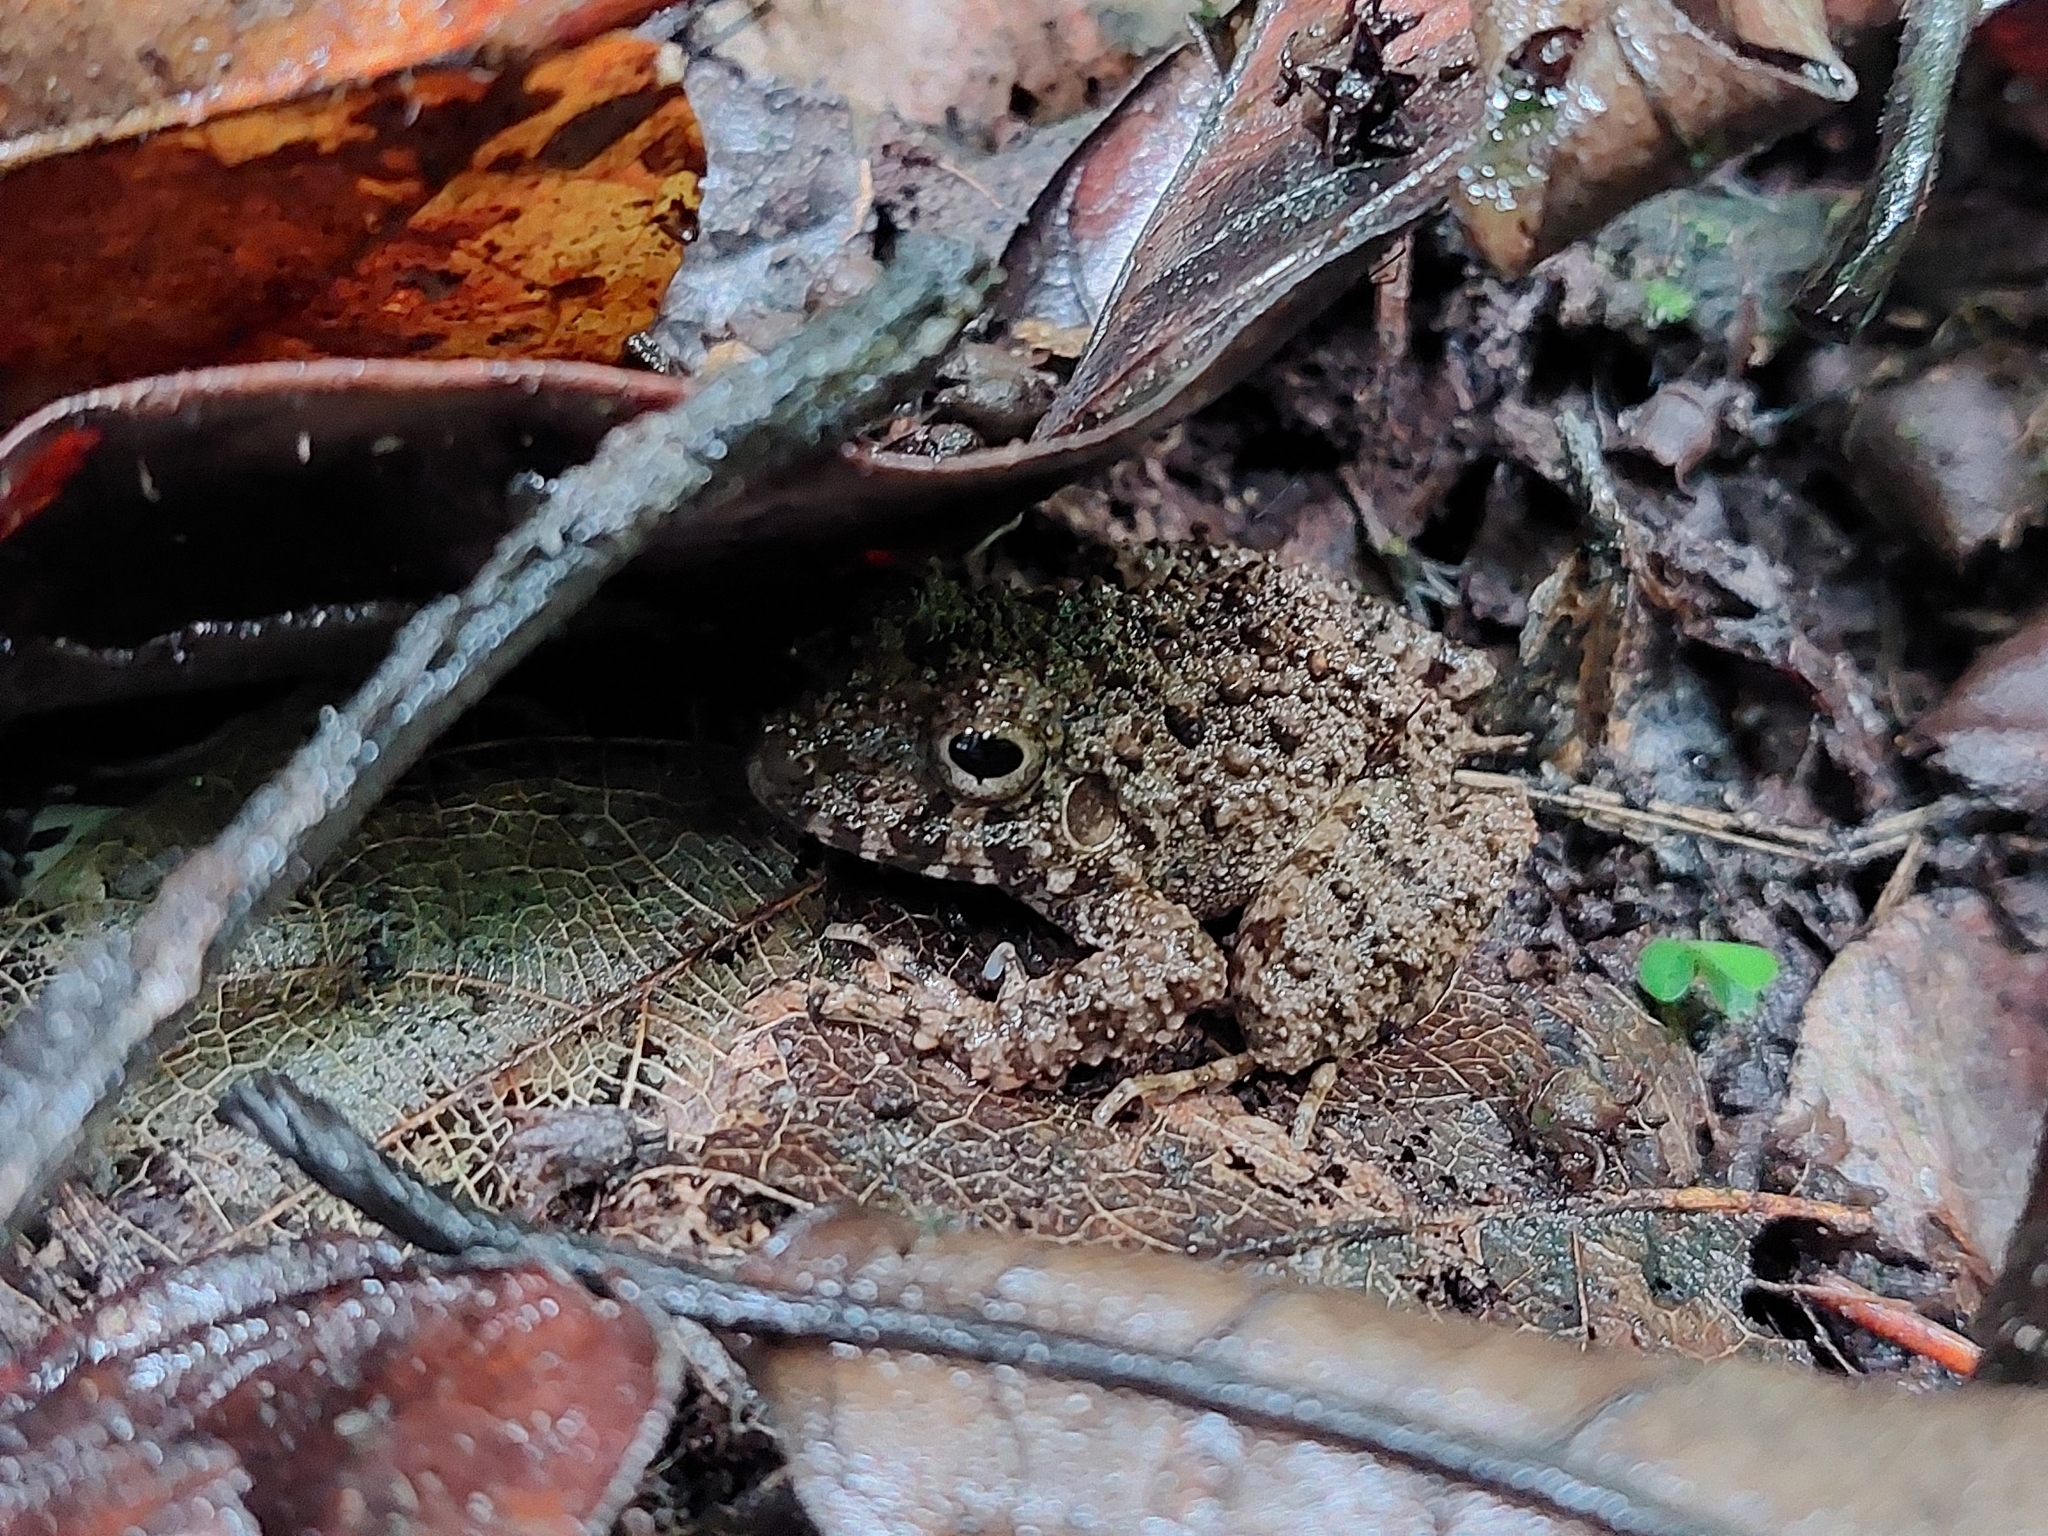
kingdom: Animalia
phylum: Chordata
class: Amphibia
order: Anura
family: Craugastoridae
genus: Oreobates
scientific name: Oreobates quixensis
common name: Common big-headed frog
